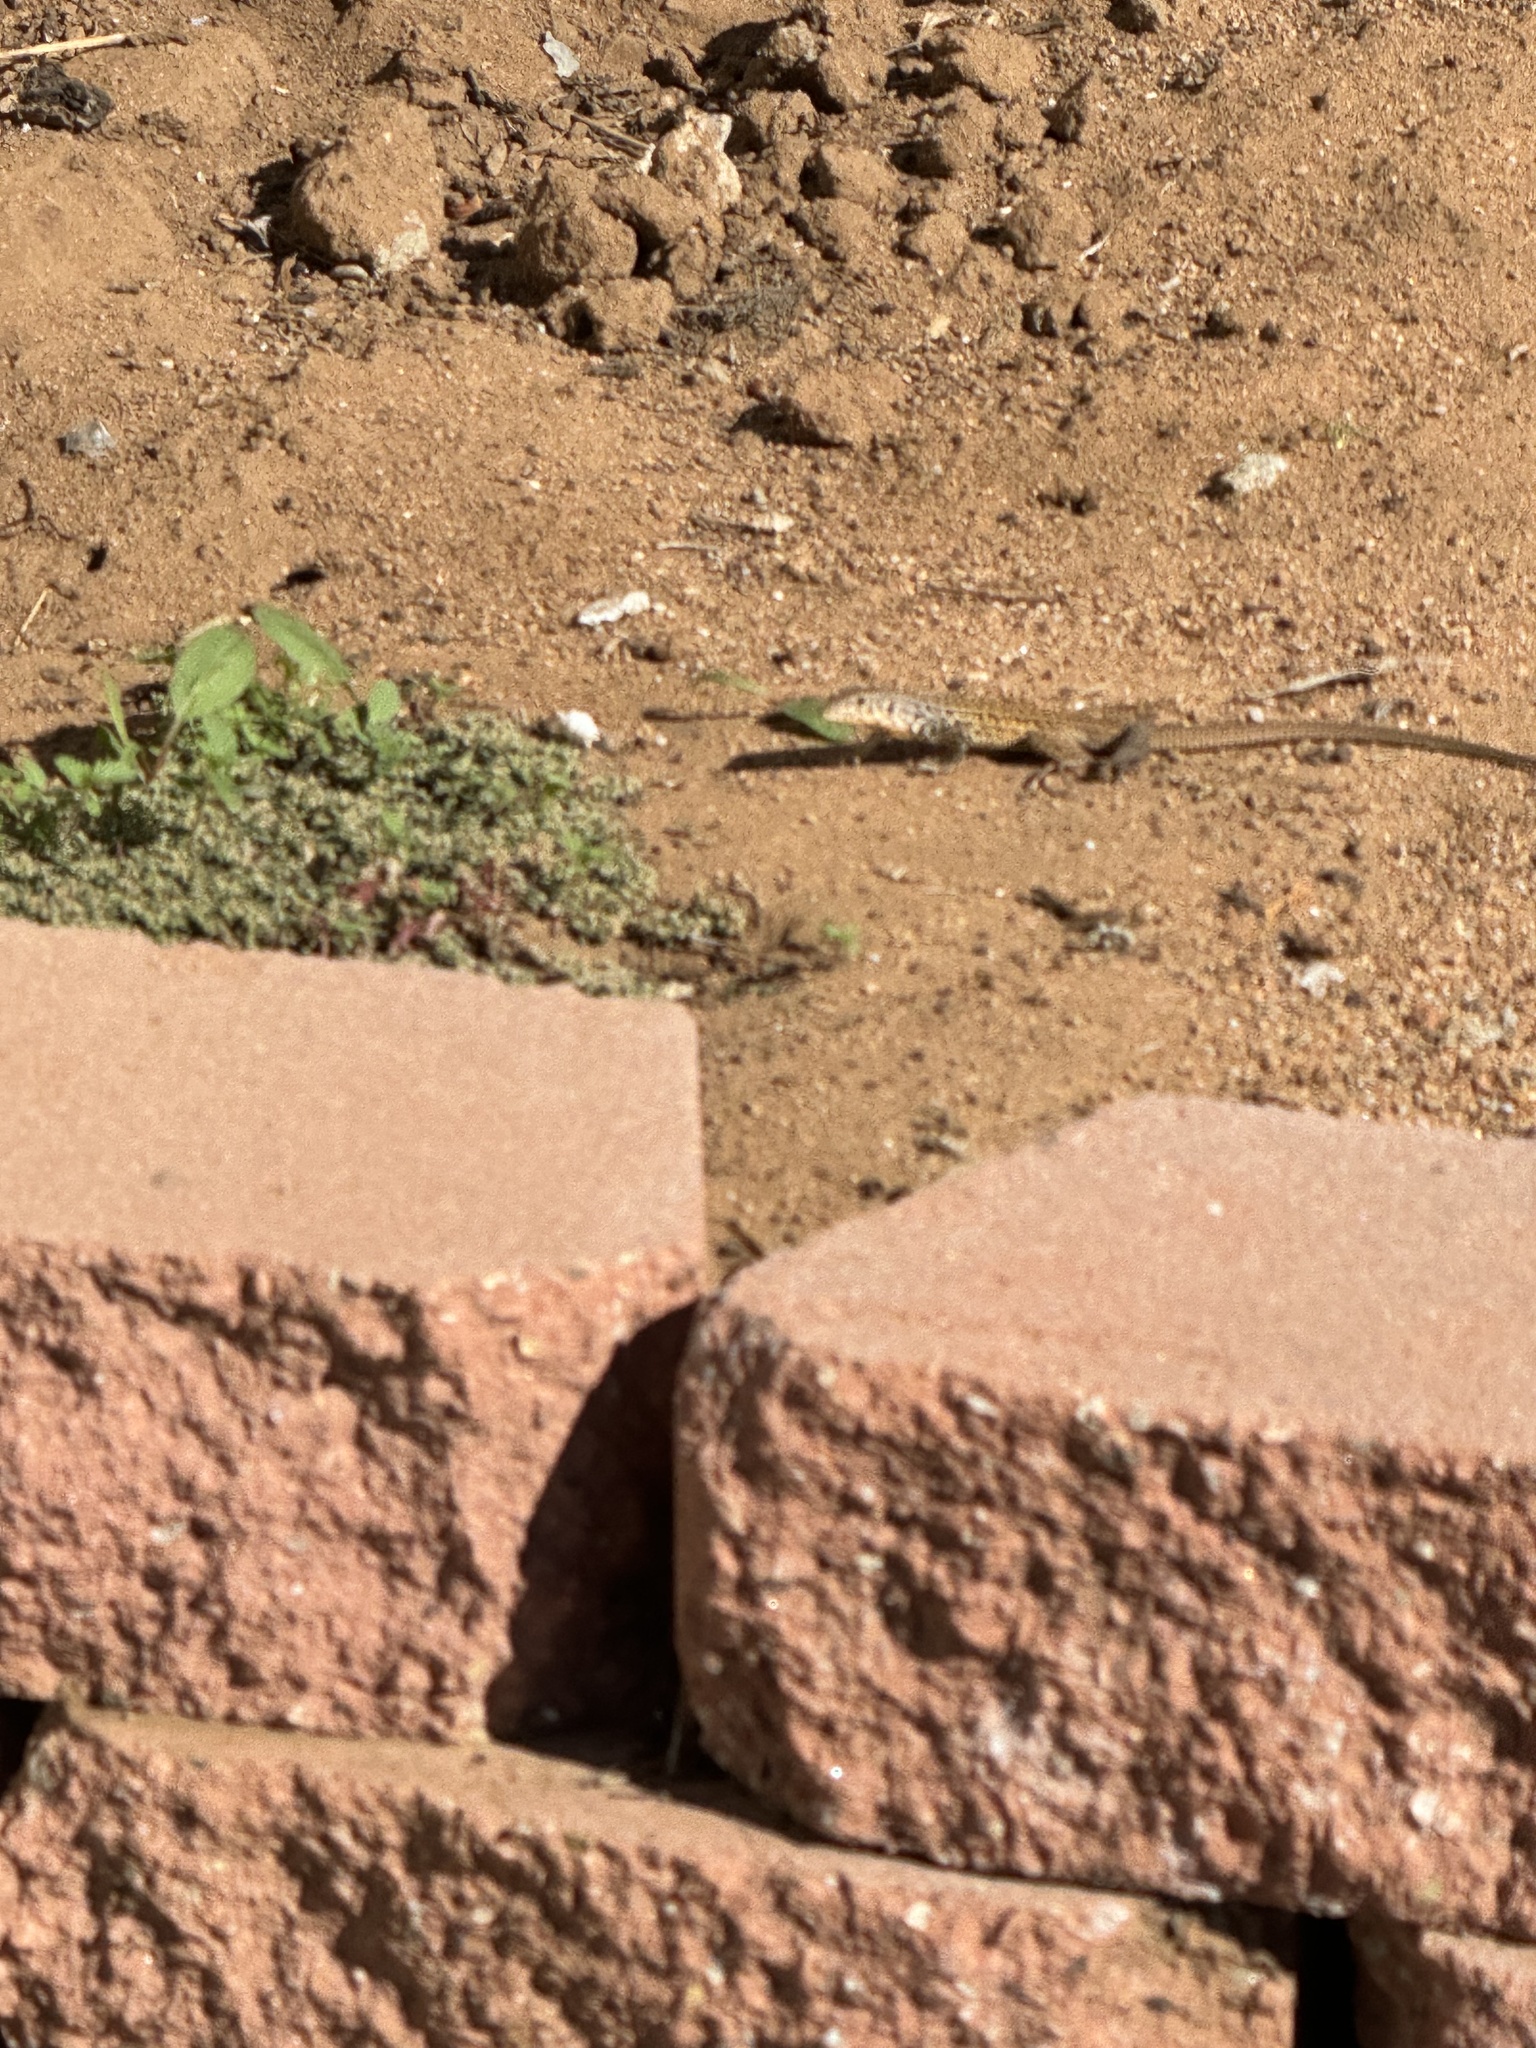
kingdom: Animalia
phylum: Chordata
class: Squamata
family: Teiidae
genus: Aspidoscelis
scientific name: Aspidoscelis tigris
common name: Tiger whiptail
